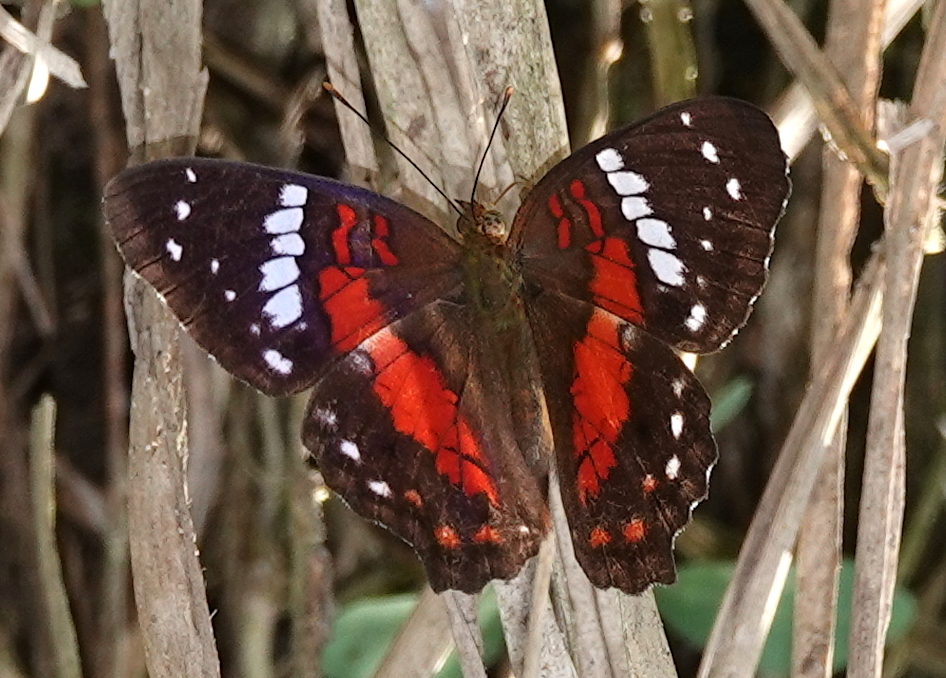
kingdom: Animalia
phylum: Arthropoda
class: Insecta
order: Lepidoptera
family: Nymphalidae
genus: Anartia
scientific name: Anartia amathea
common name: Red peacock
